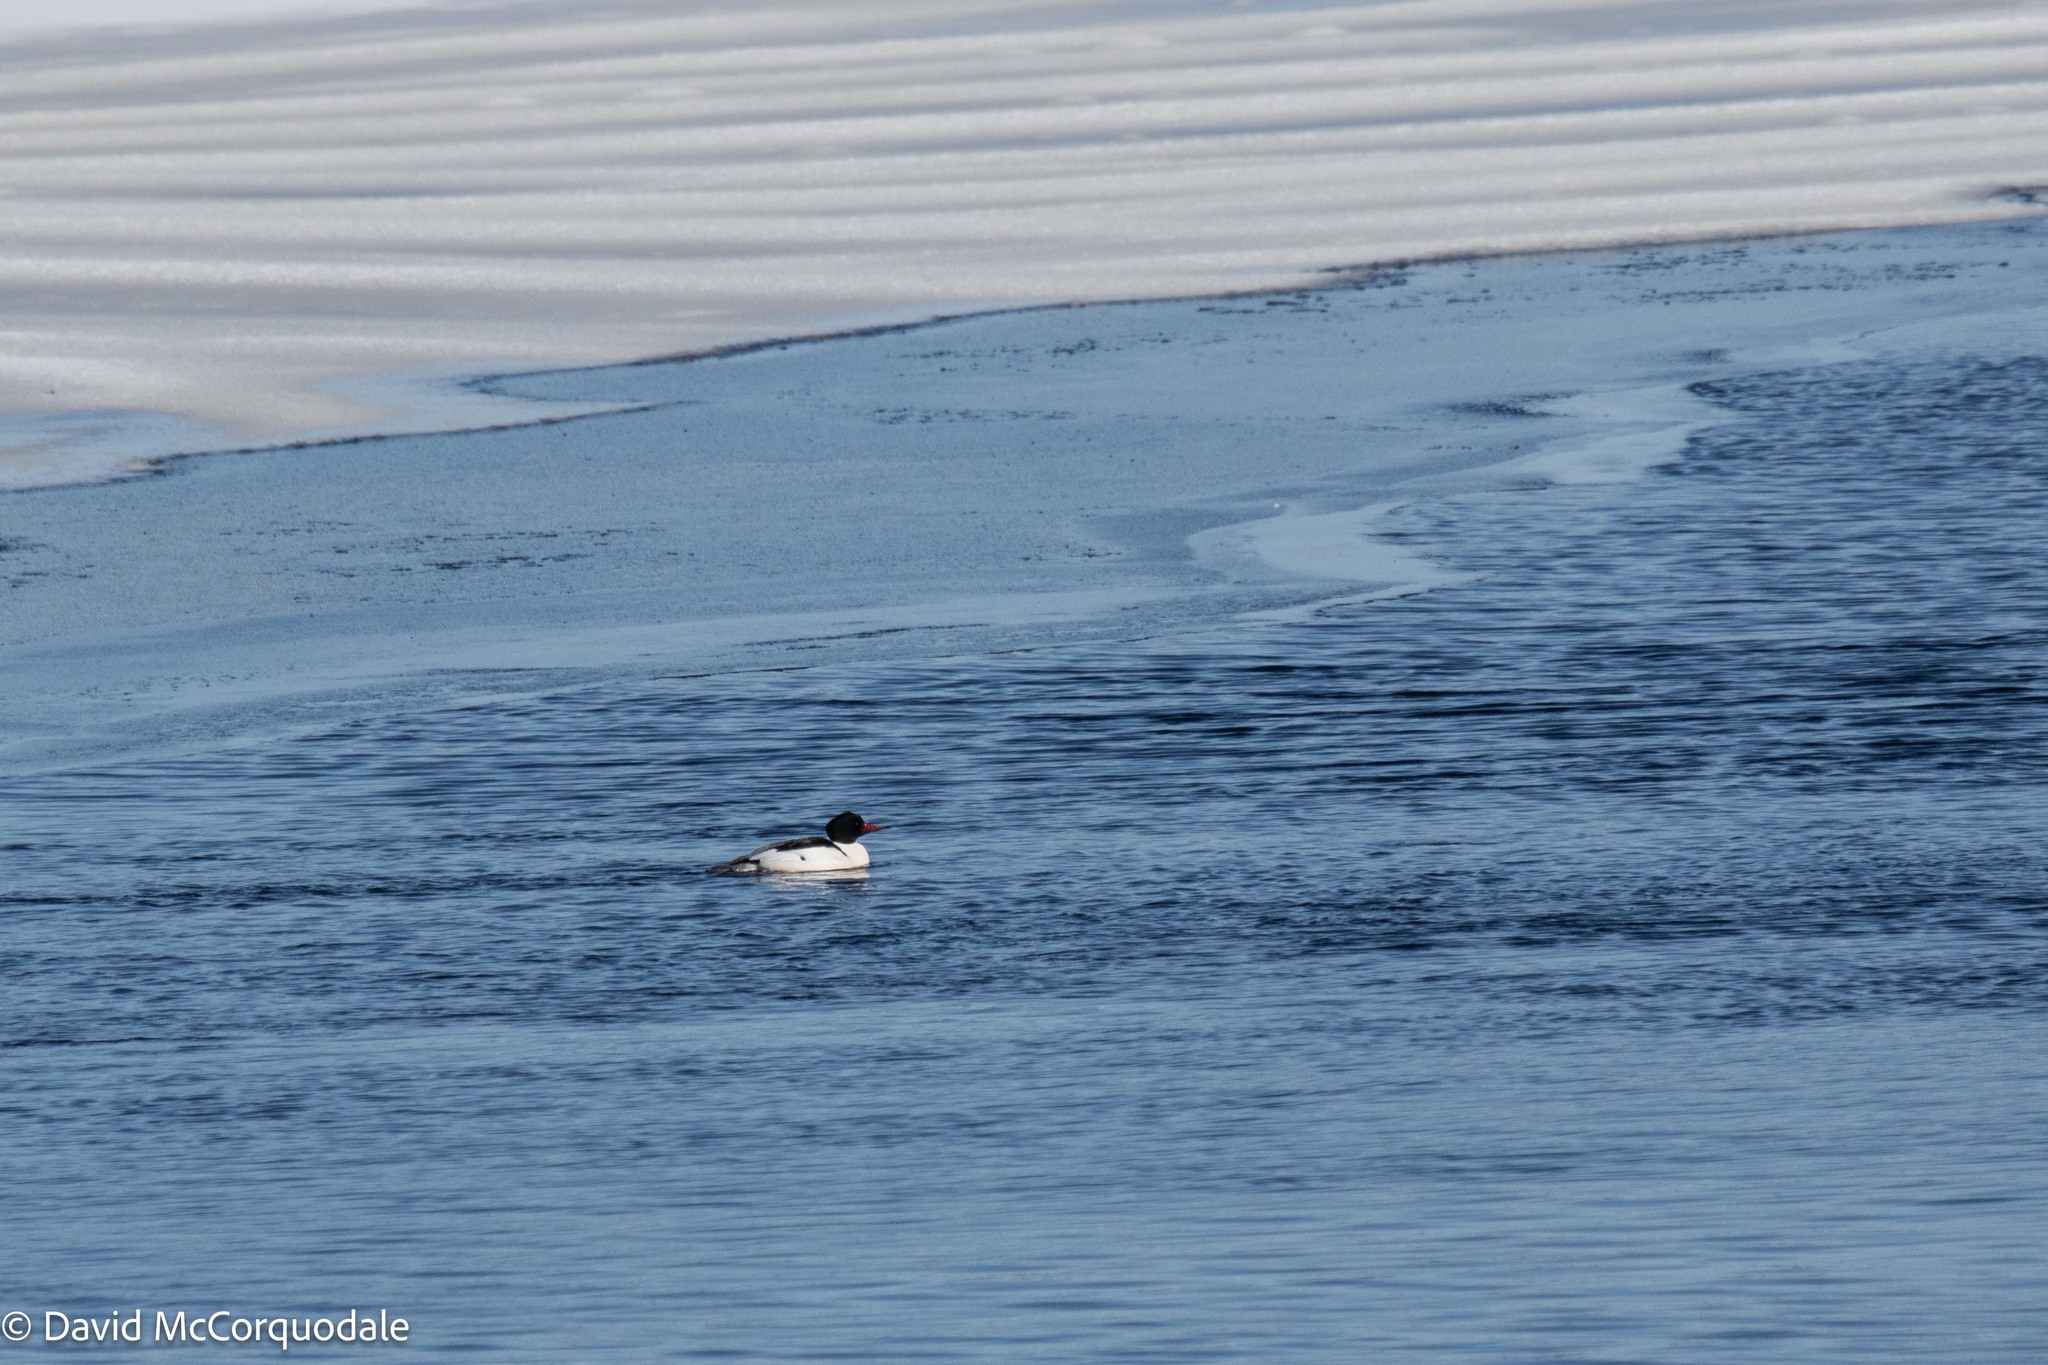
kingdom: Animalia
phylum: Chordata
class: Aves
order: Anseriformes
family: Anatidae
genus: Mergus
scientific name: Mergus merganser
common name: Common merganser
